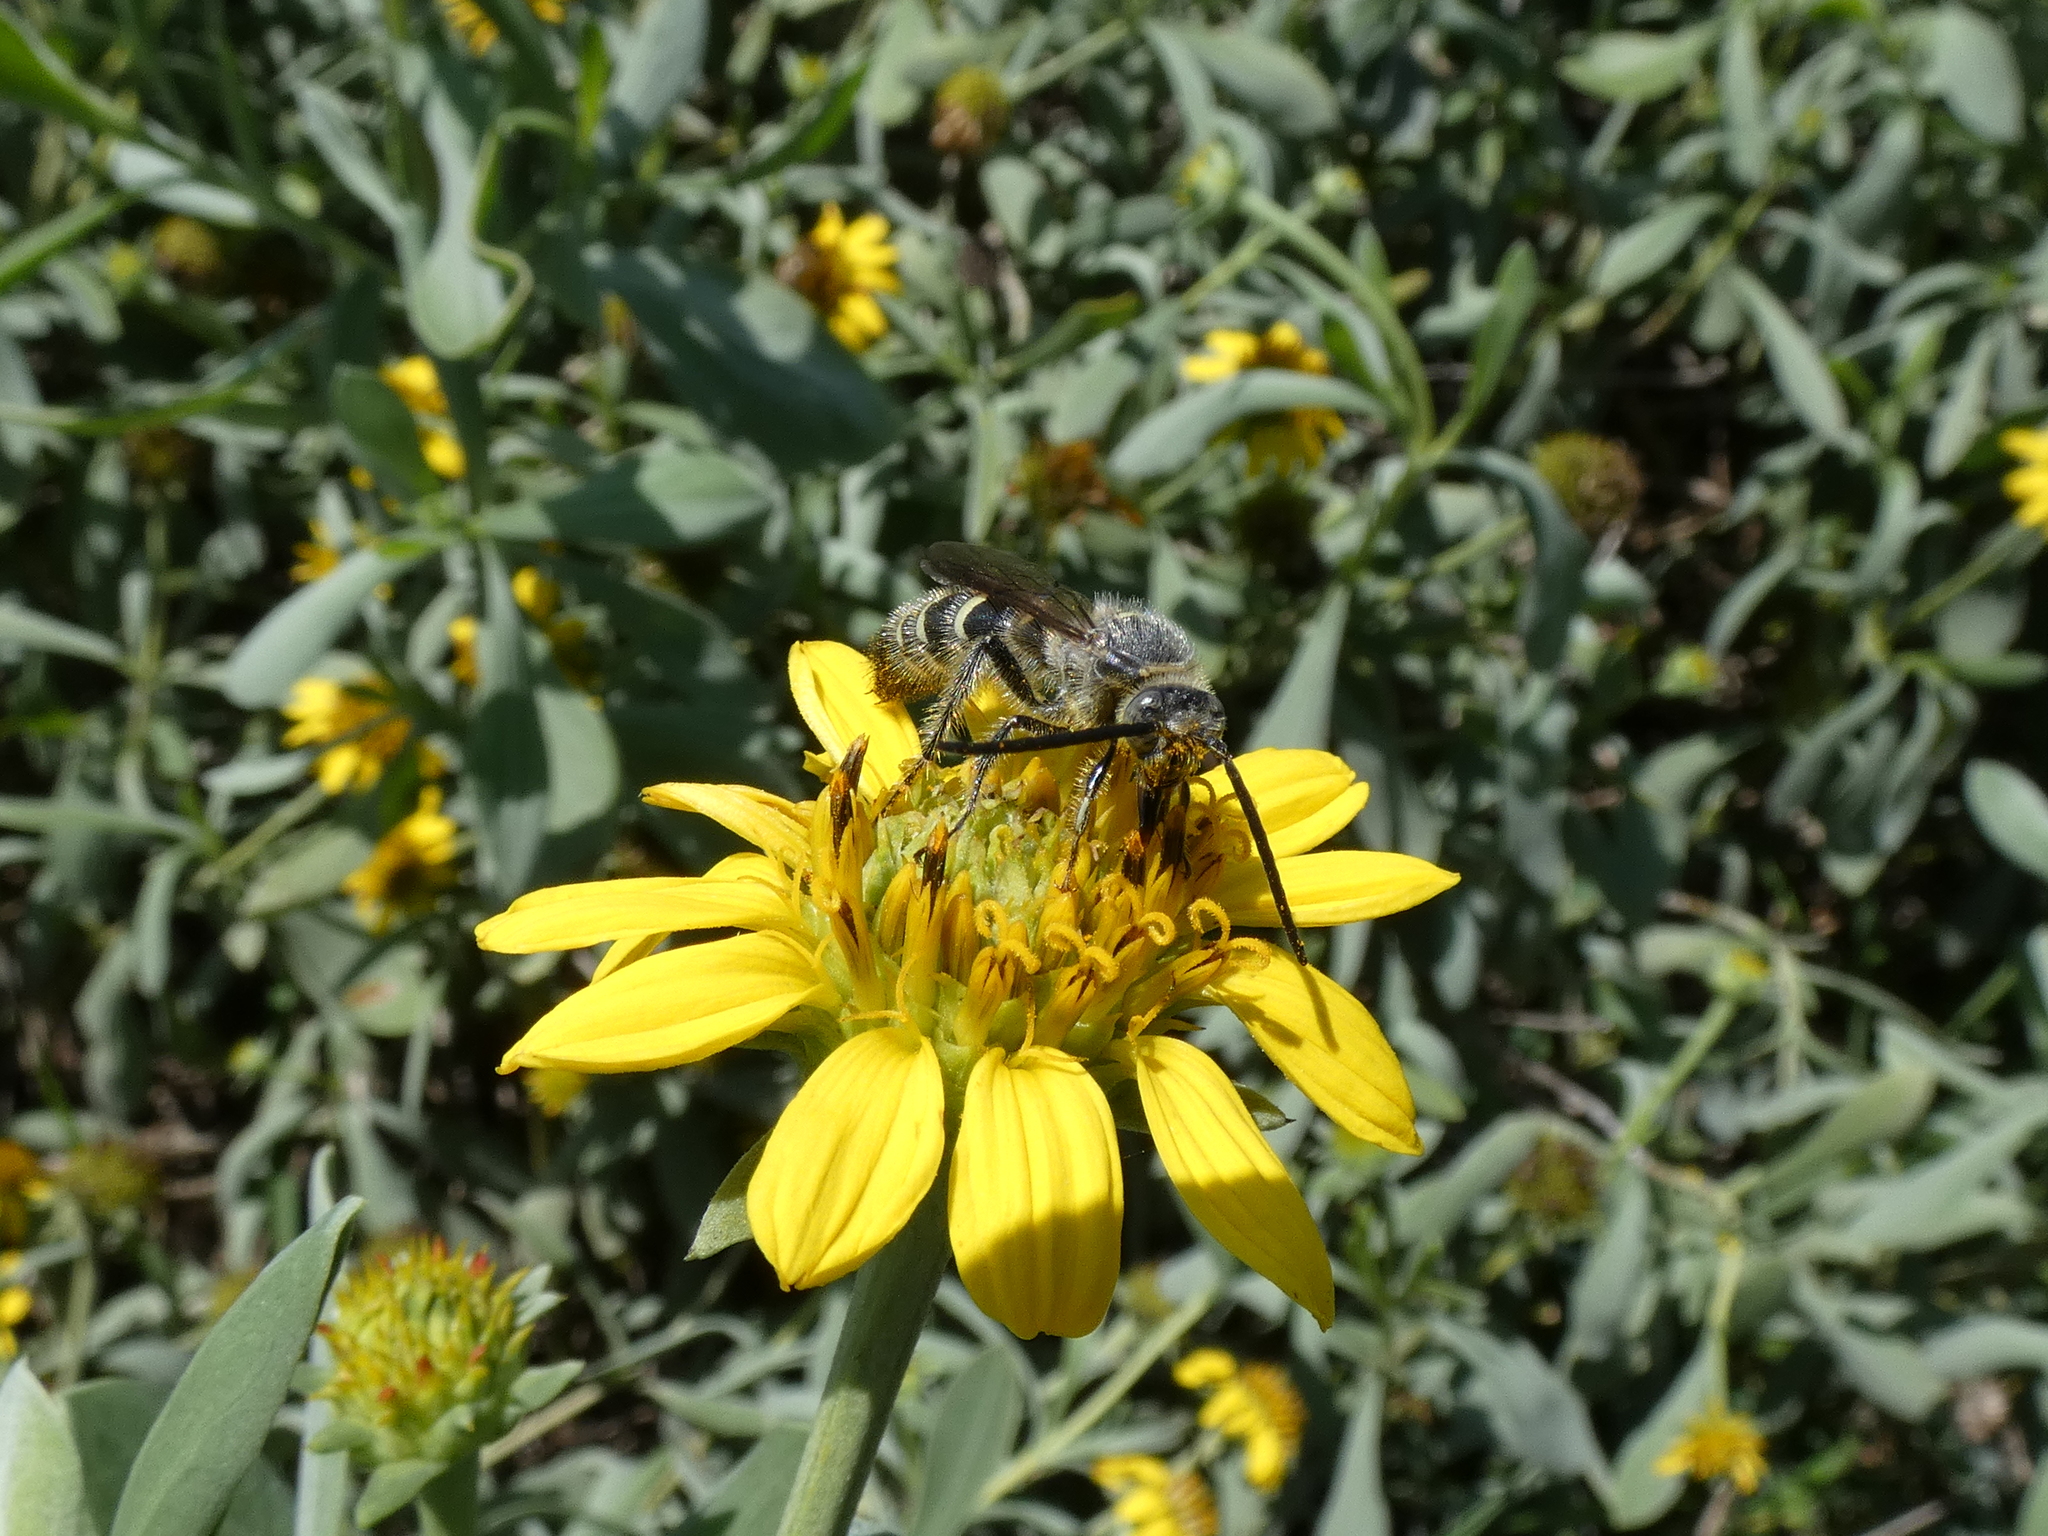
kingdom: Animalia
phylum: Arthropoda
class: Insecta
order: Hymenoptera
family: Scoliidae
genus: Dielis
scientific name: Dielis
